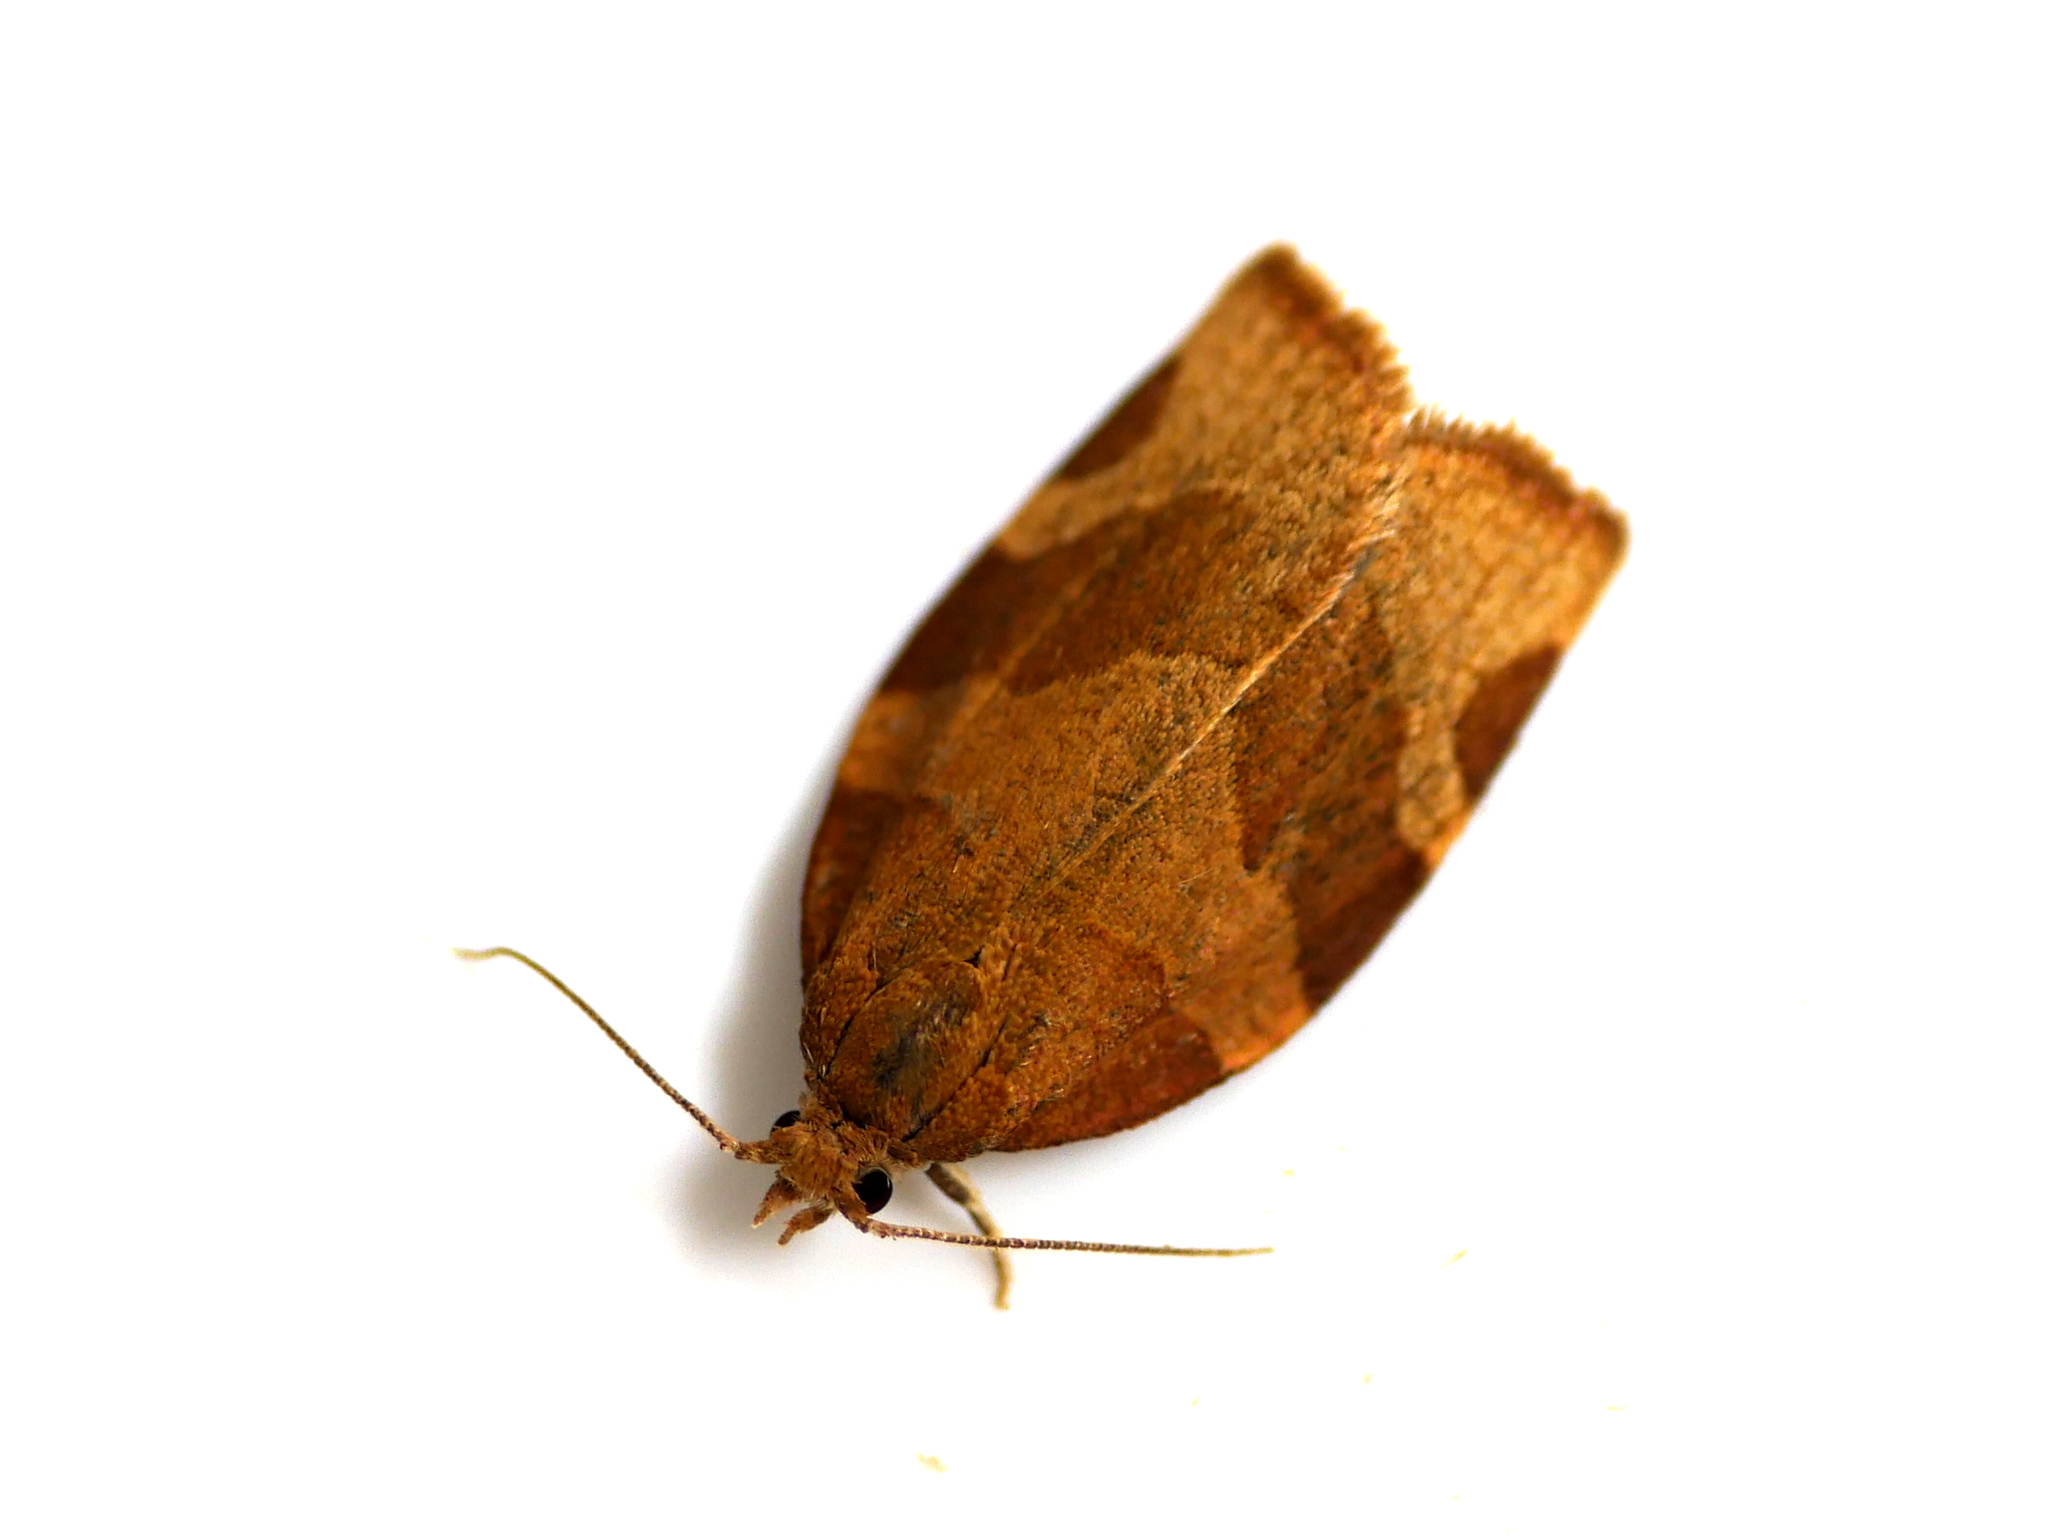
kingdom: Animalia
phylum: Arthropoda
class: Insecta
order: Lepidoptera
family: Tortricidae
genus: Pandemis
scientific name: Pandemis cerasana
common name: Barred fruit-tree tortrix
